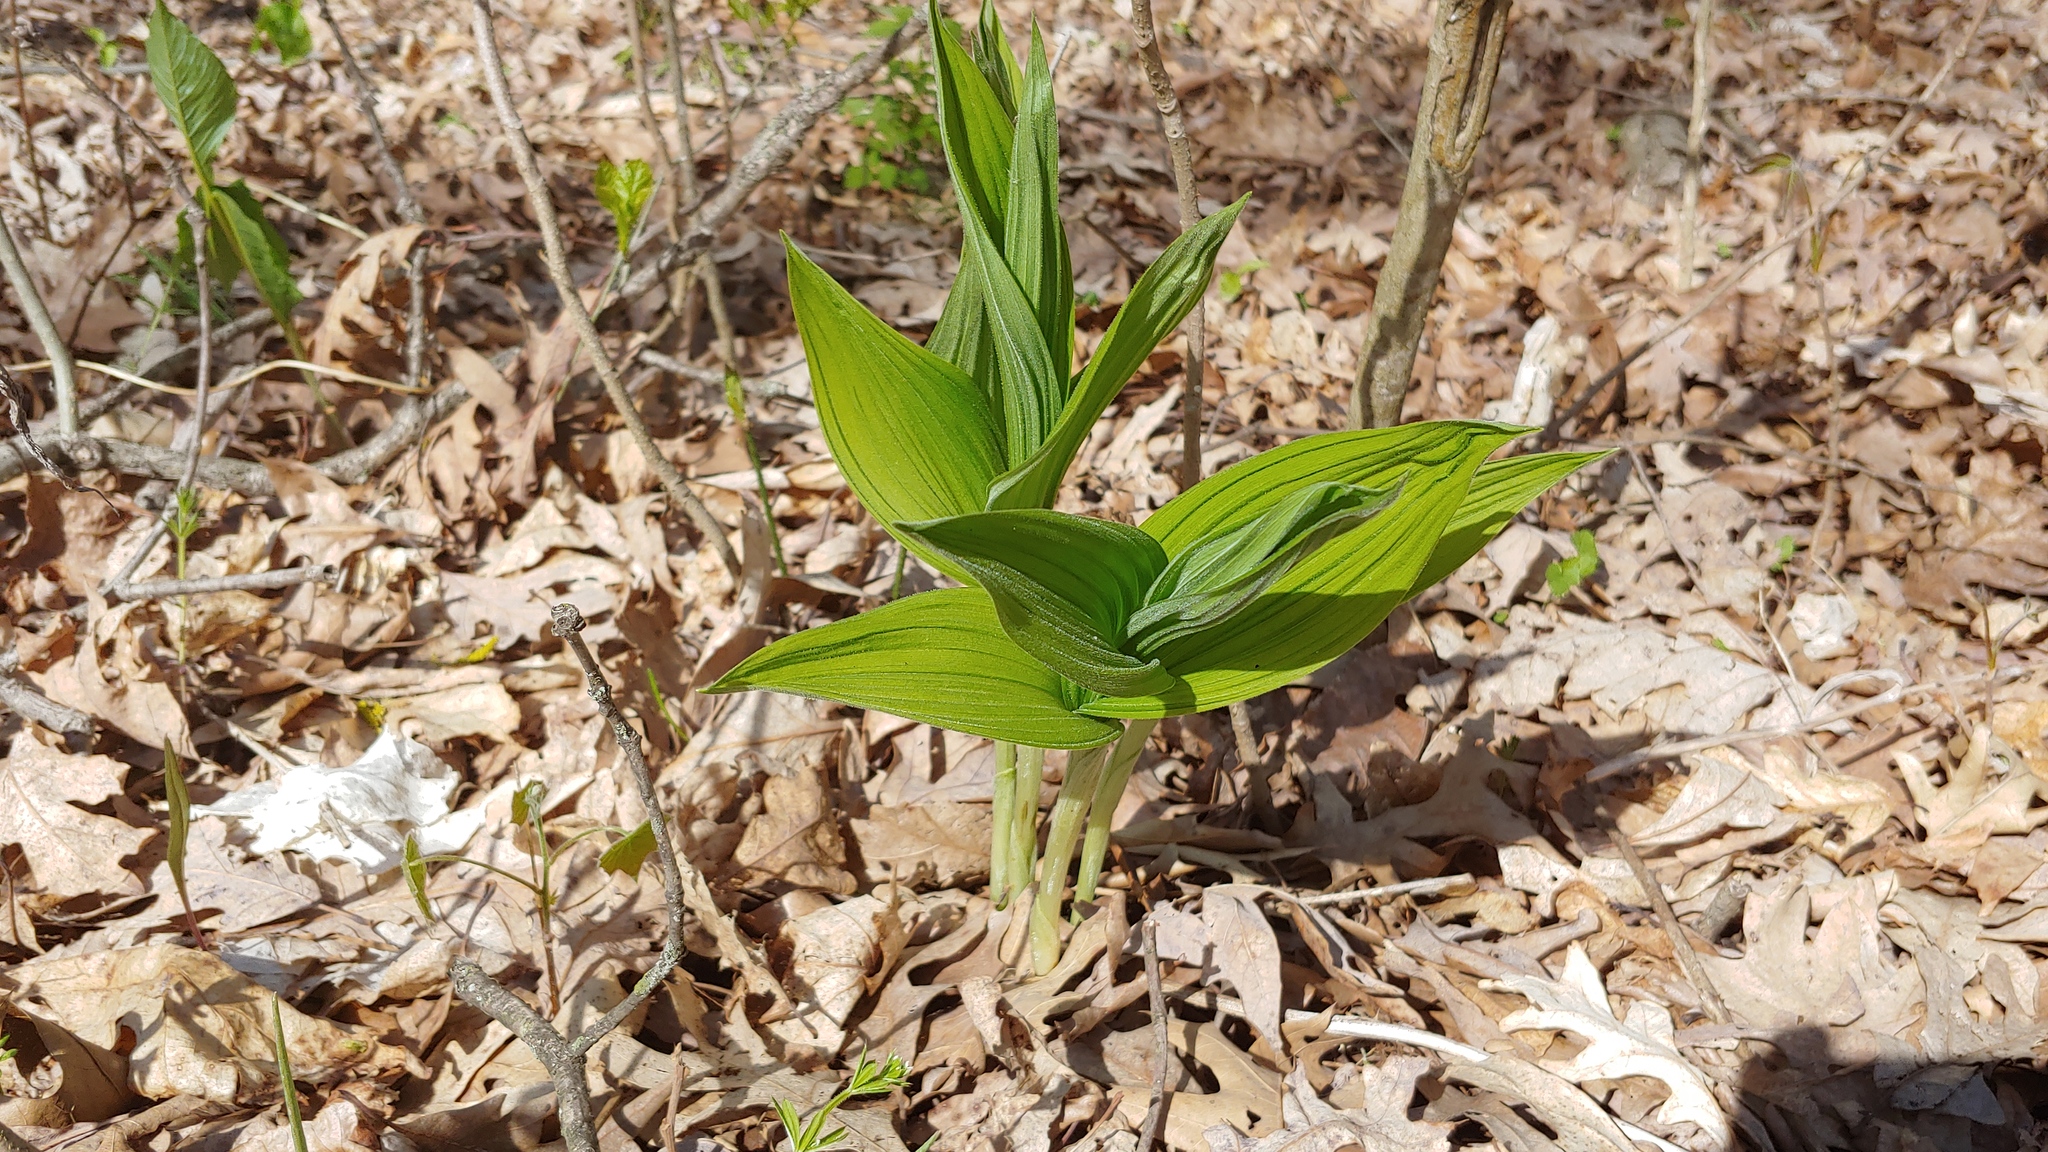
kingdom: Plantae
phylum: Tracheophyta
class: Liliopsida
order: Asparagales
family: Orchidaceae
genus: Cypripedium
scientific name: Cypripedium parviflorum
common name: American yellow lady's-slipper
